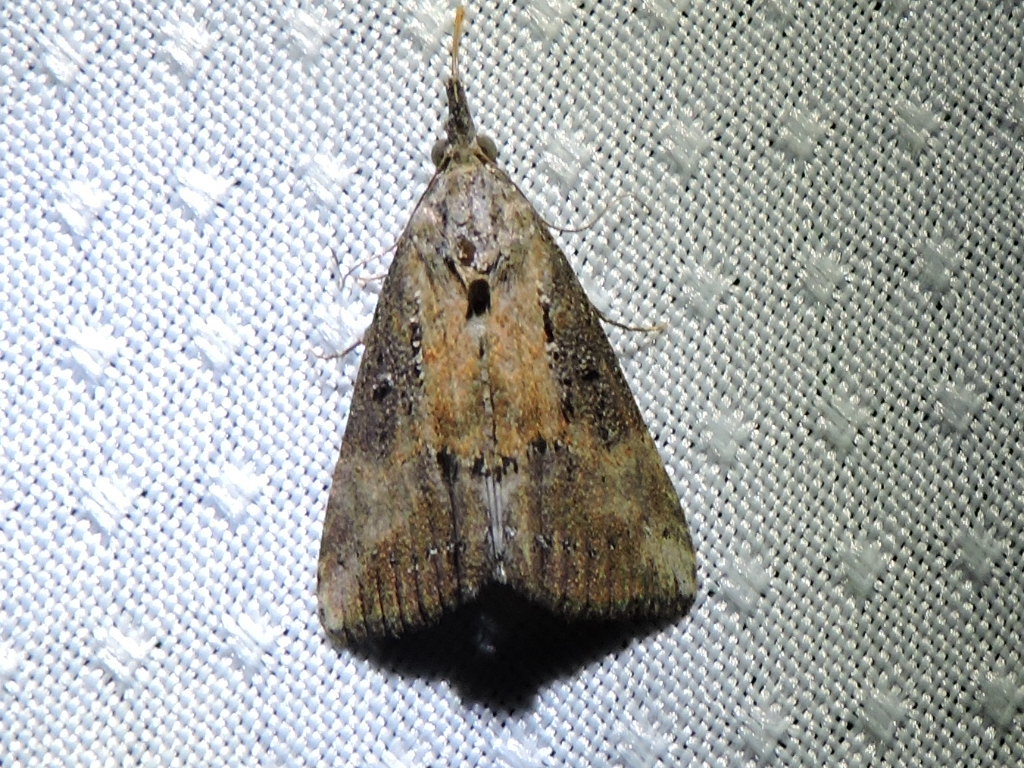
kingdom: Animalia
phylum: Arthropoda
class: Insecta
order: Lepidoptera
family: Erebidae
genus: Hypena
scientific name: Hypena scabra
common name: Green cloverworm
